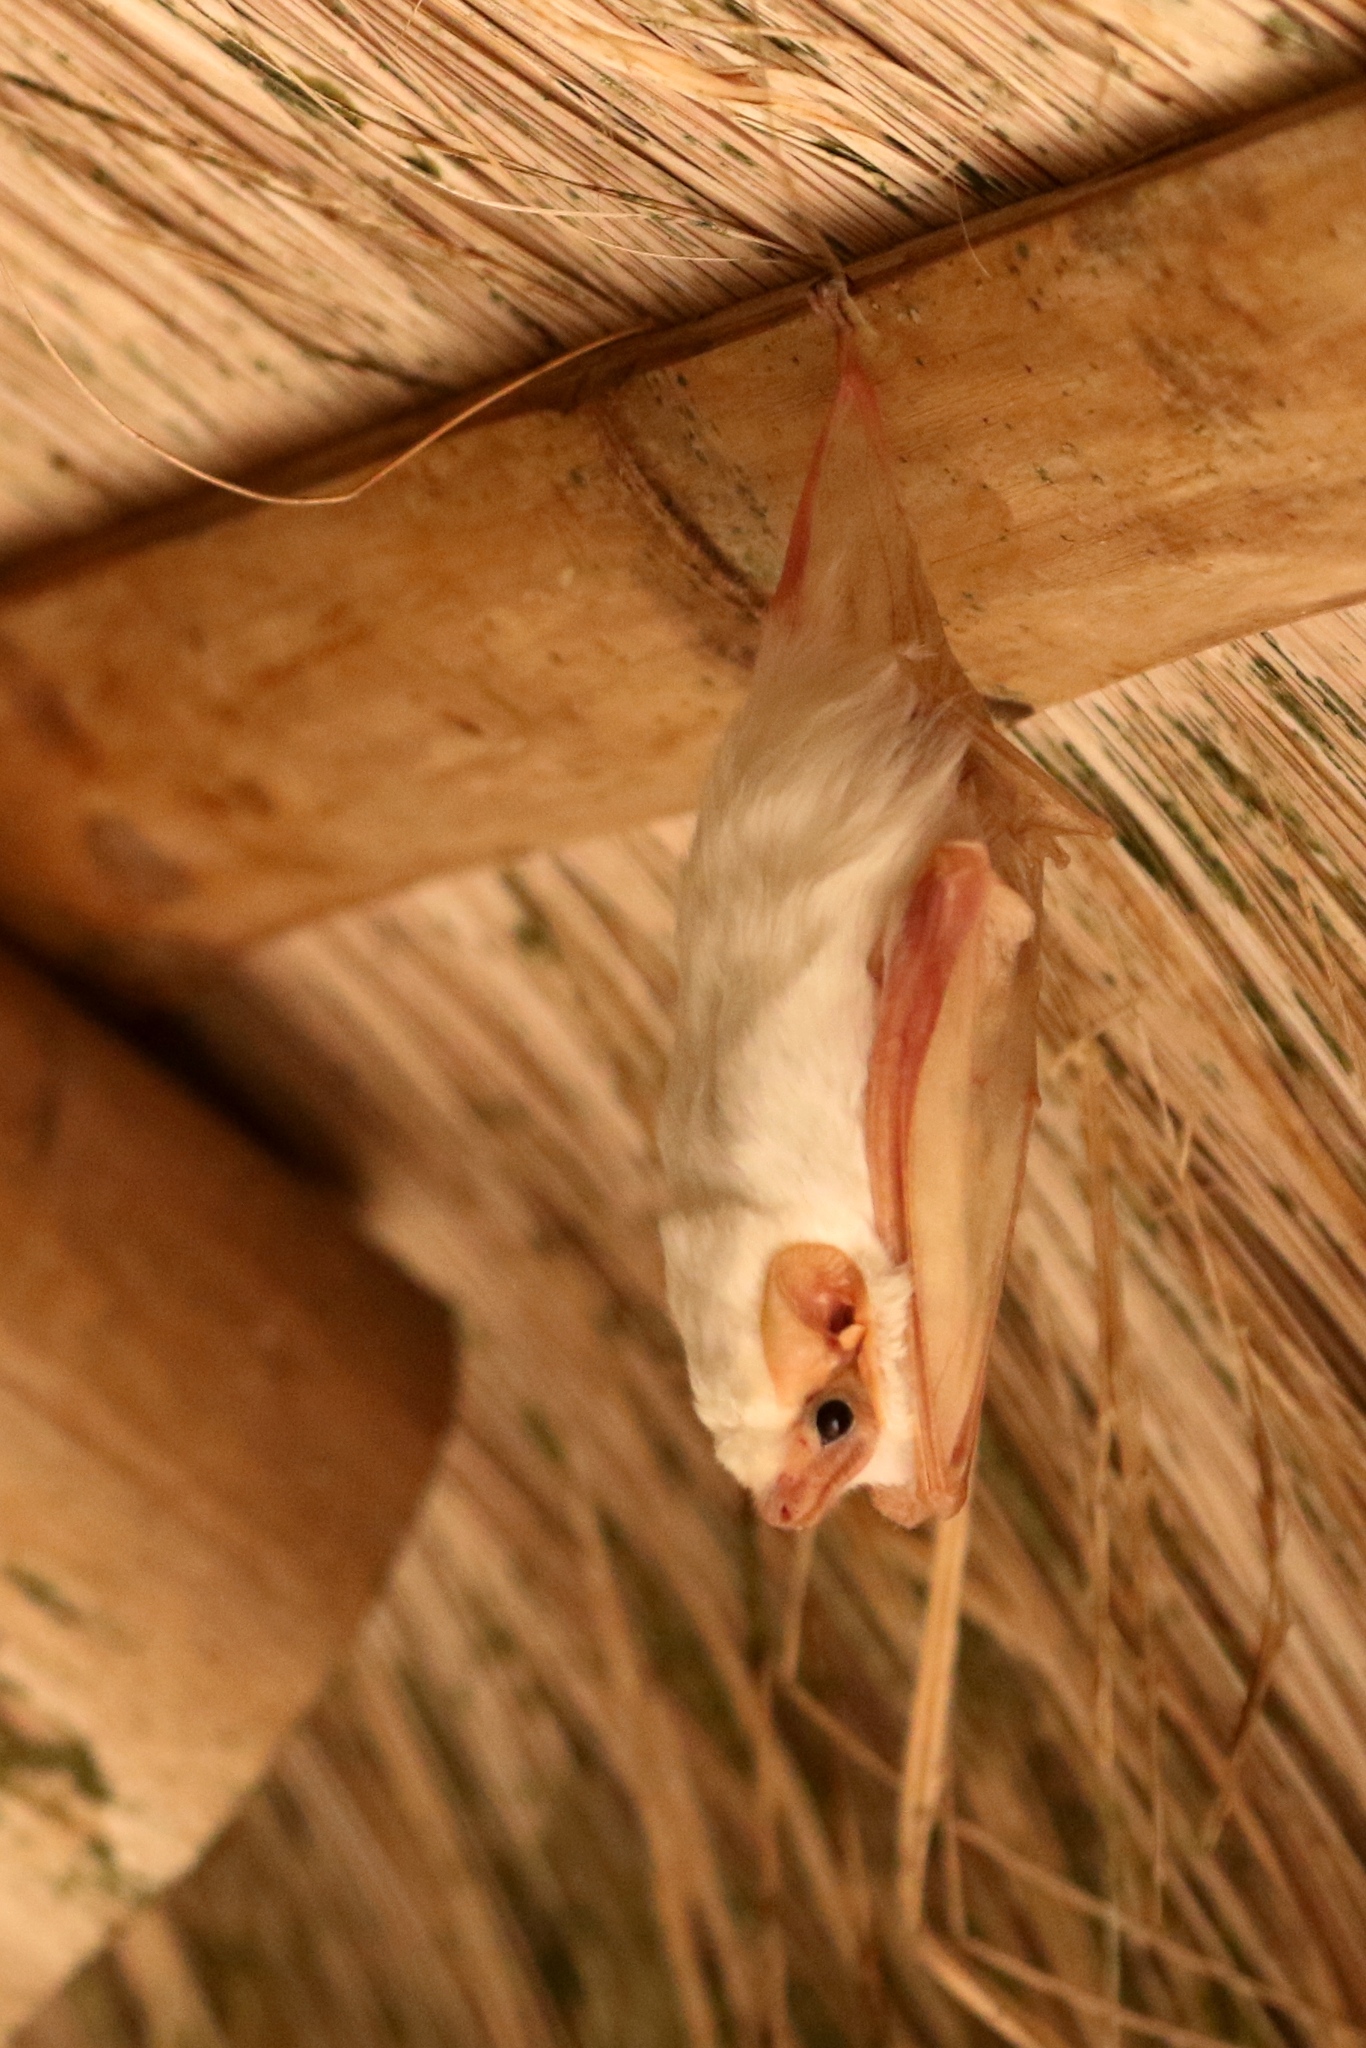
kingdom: Animalia
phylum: Chordata
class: Mammalia
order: Chiroptera
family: Emballonuridae
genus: Diclidurus
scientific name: Diclidurus albus
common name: Northern ghost bat
